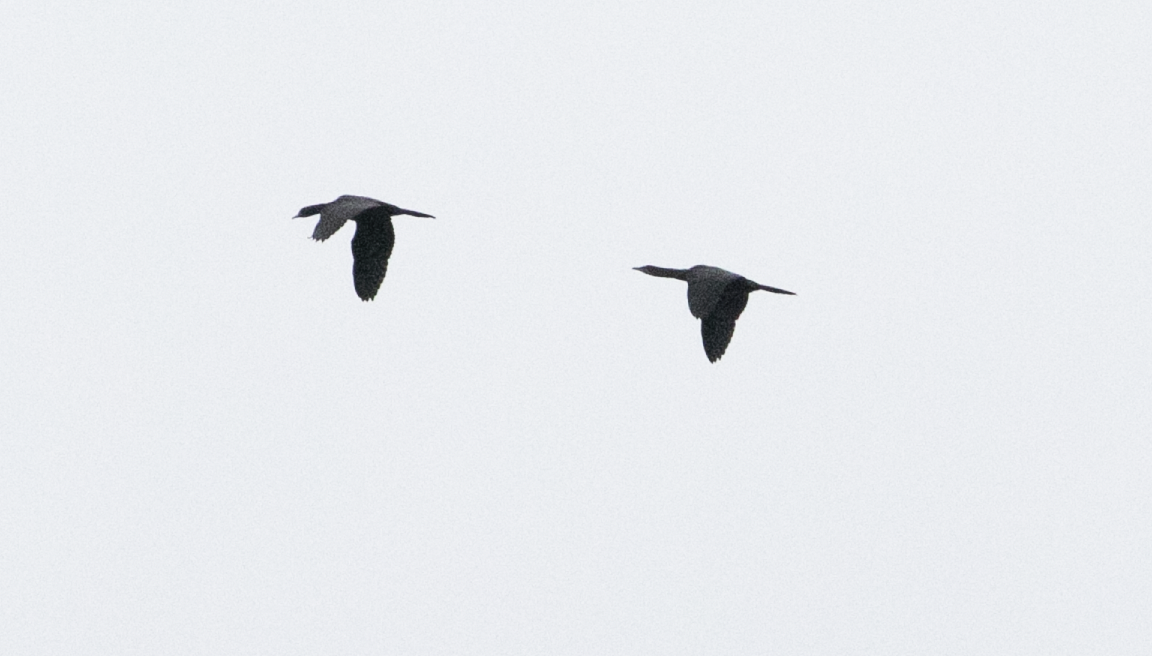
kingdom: Animalia
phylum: Chordata
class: Aves
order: Suliformes
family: Phalacrocoracidae
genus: Microcarbo
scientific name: Microcarbo pygmaeus
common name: Pygmy cormorant
